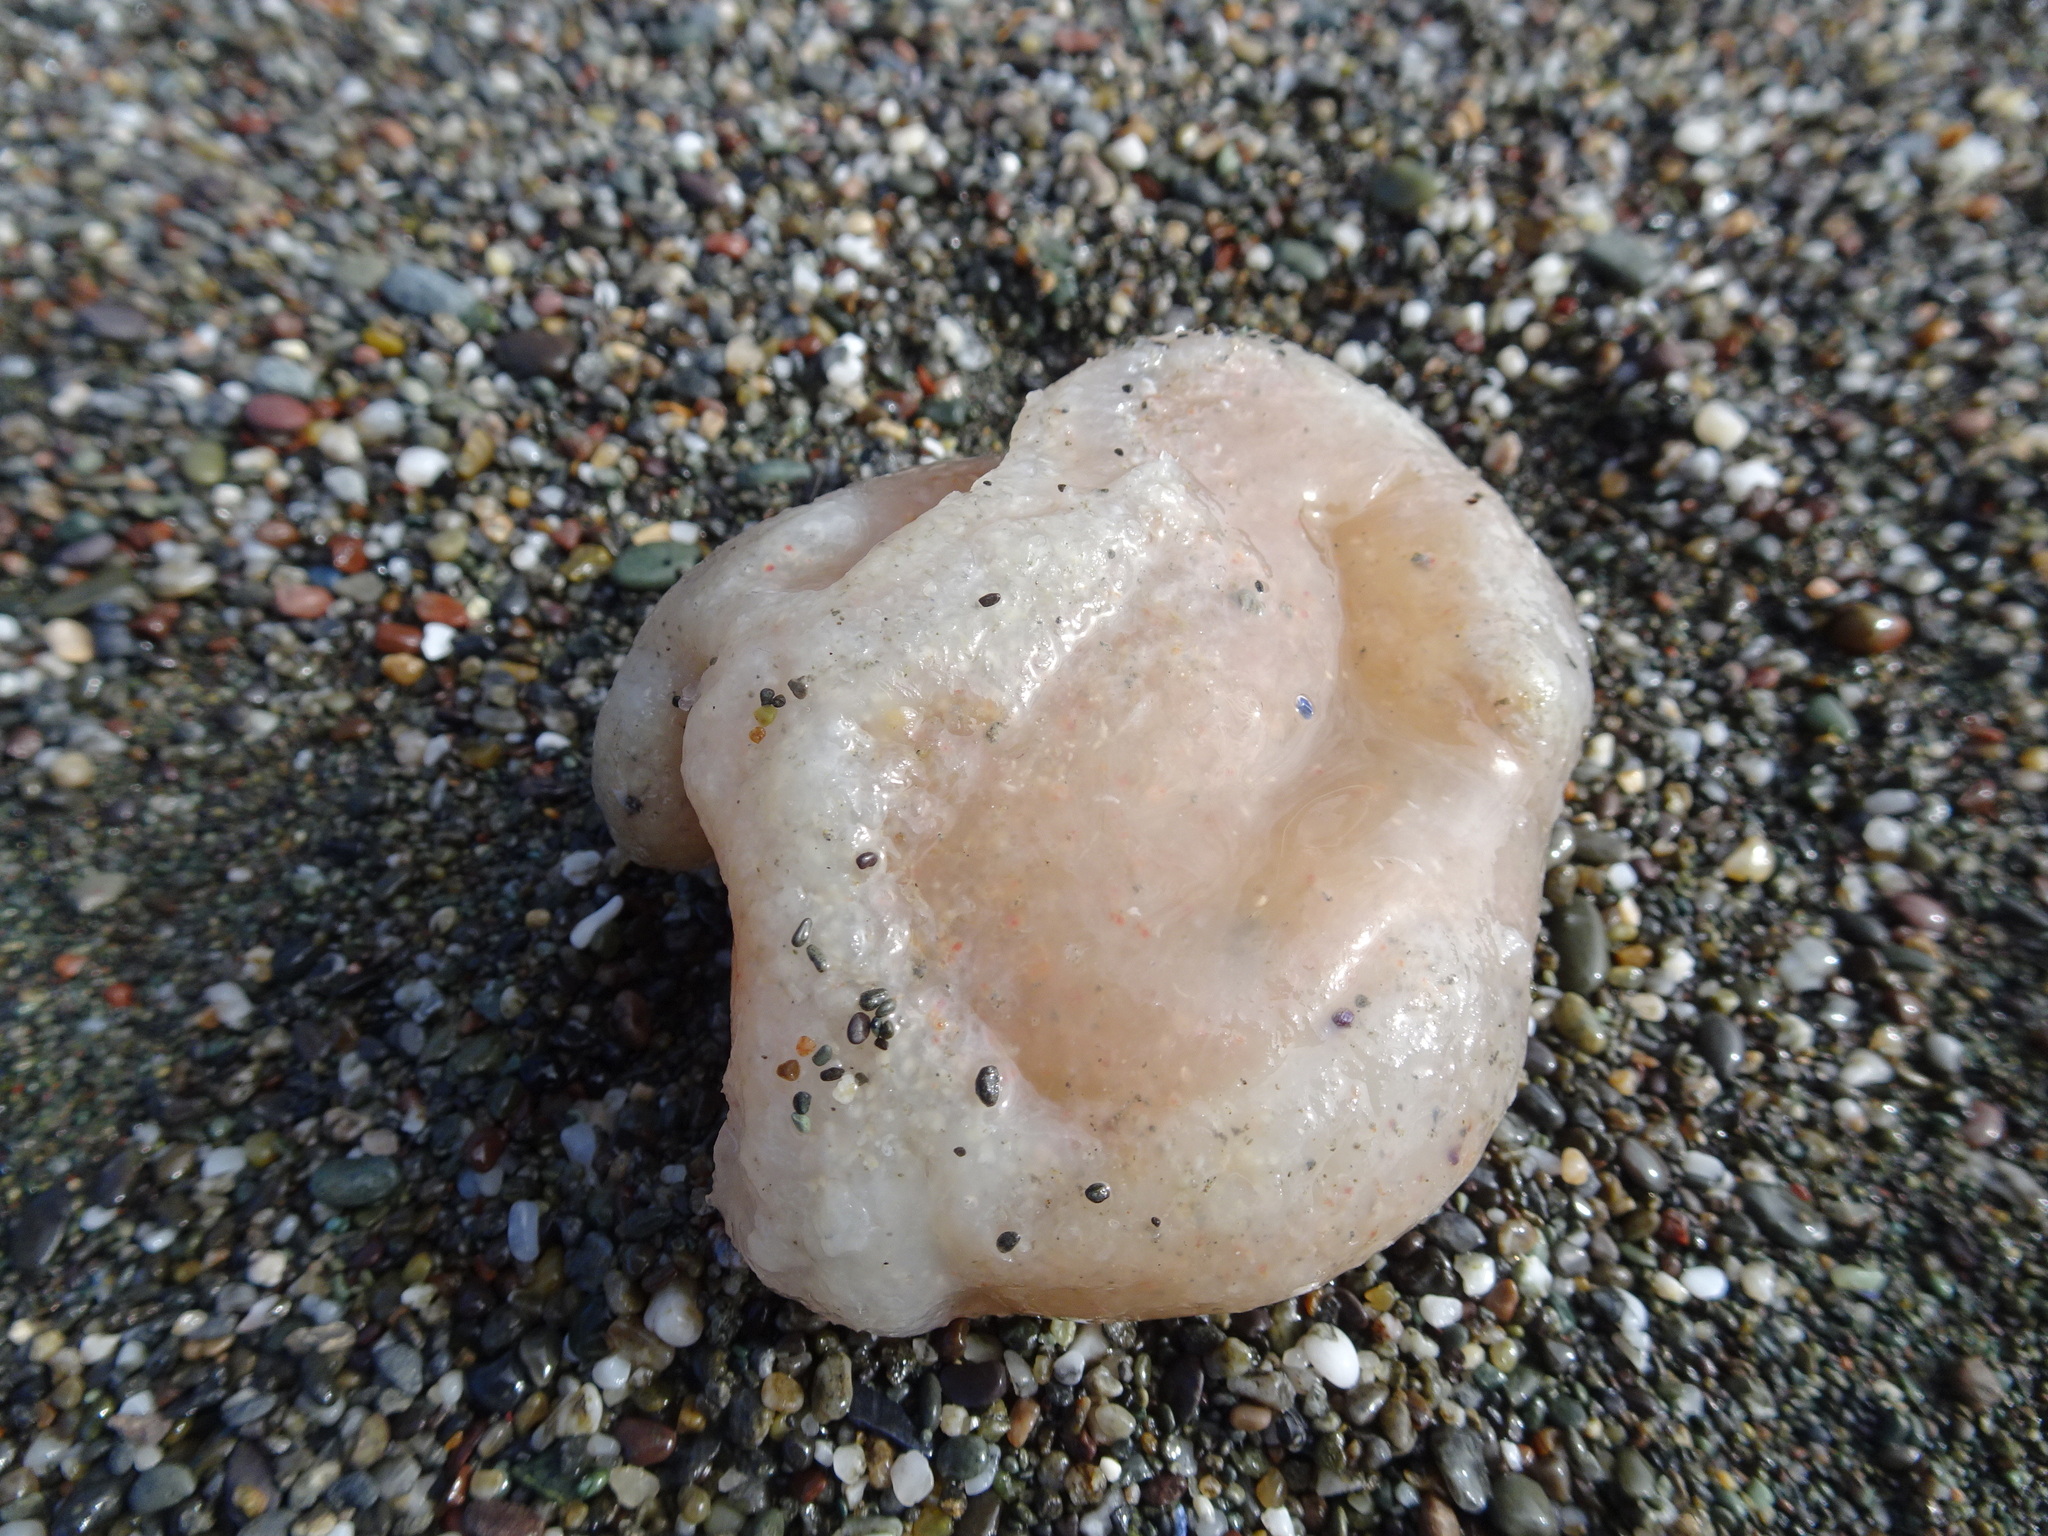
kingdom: Animalia
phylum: Chordata
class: Ascidiacea
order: Aplousobranchia
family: Polyclinidae
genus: Aplidium
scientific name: Aplidium californicum
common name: Sea pork
